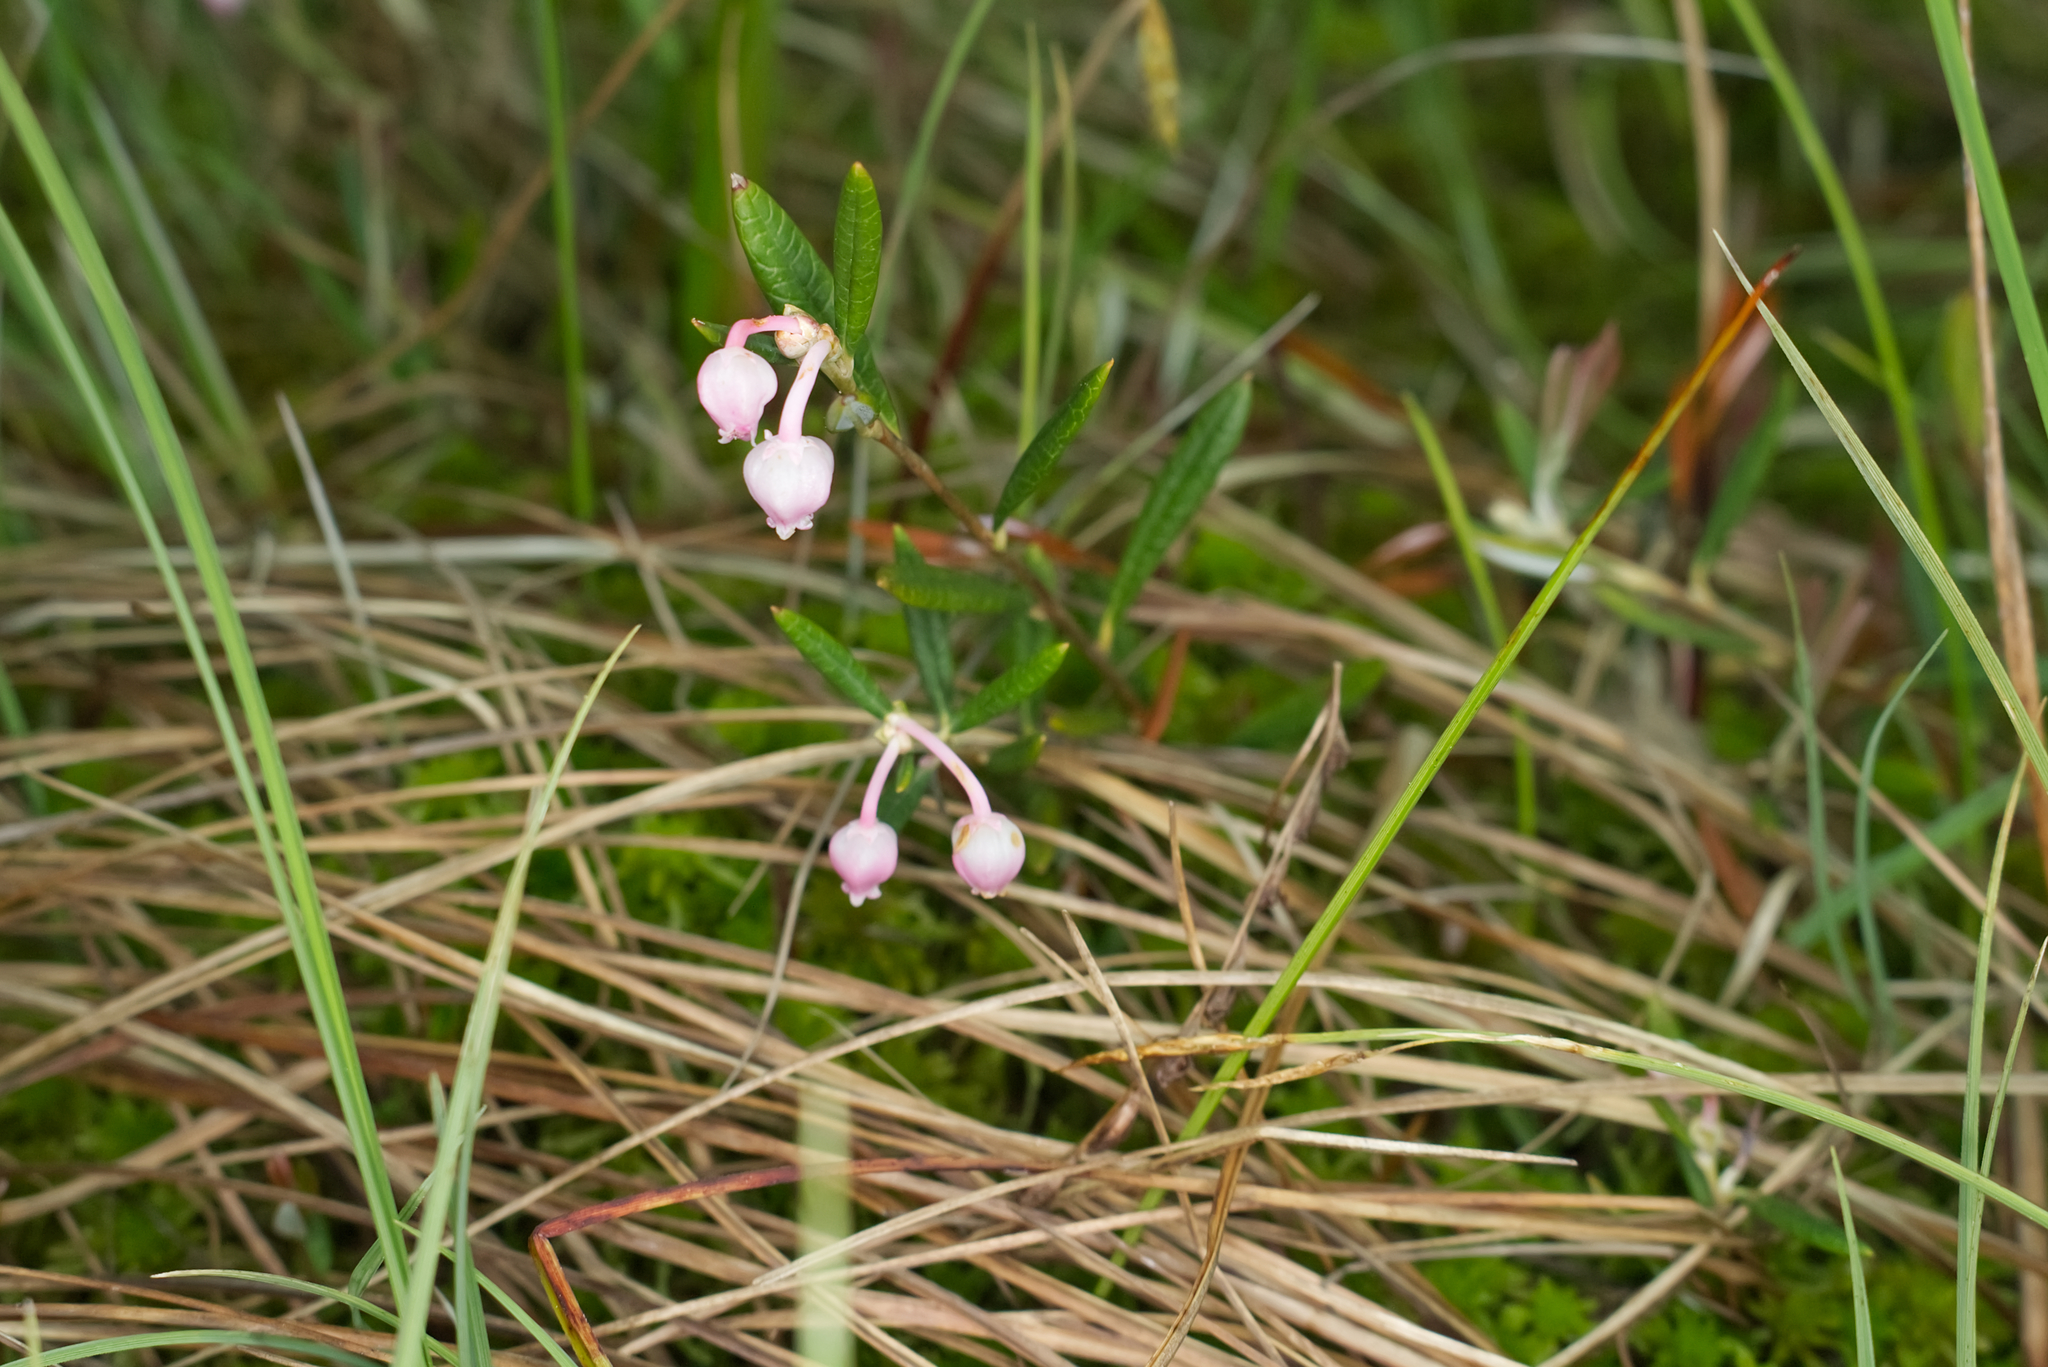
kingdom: Plantae
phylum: Tracheophyta
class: Magnoliopsida
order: Ericales
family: Ericaceae
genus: Andromeda
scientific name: Andromeda polifolia
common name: Bog-rosemary
